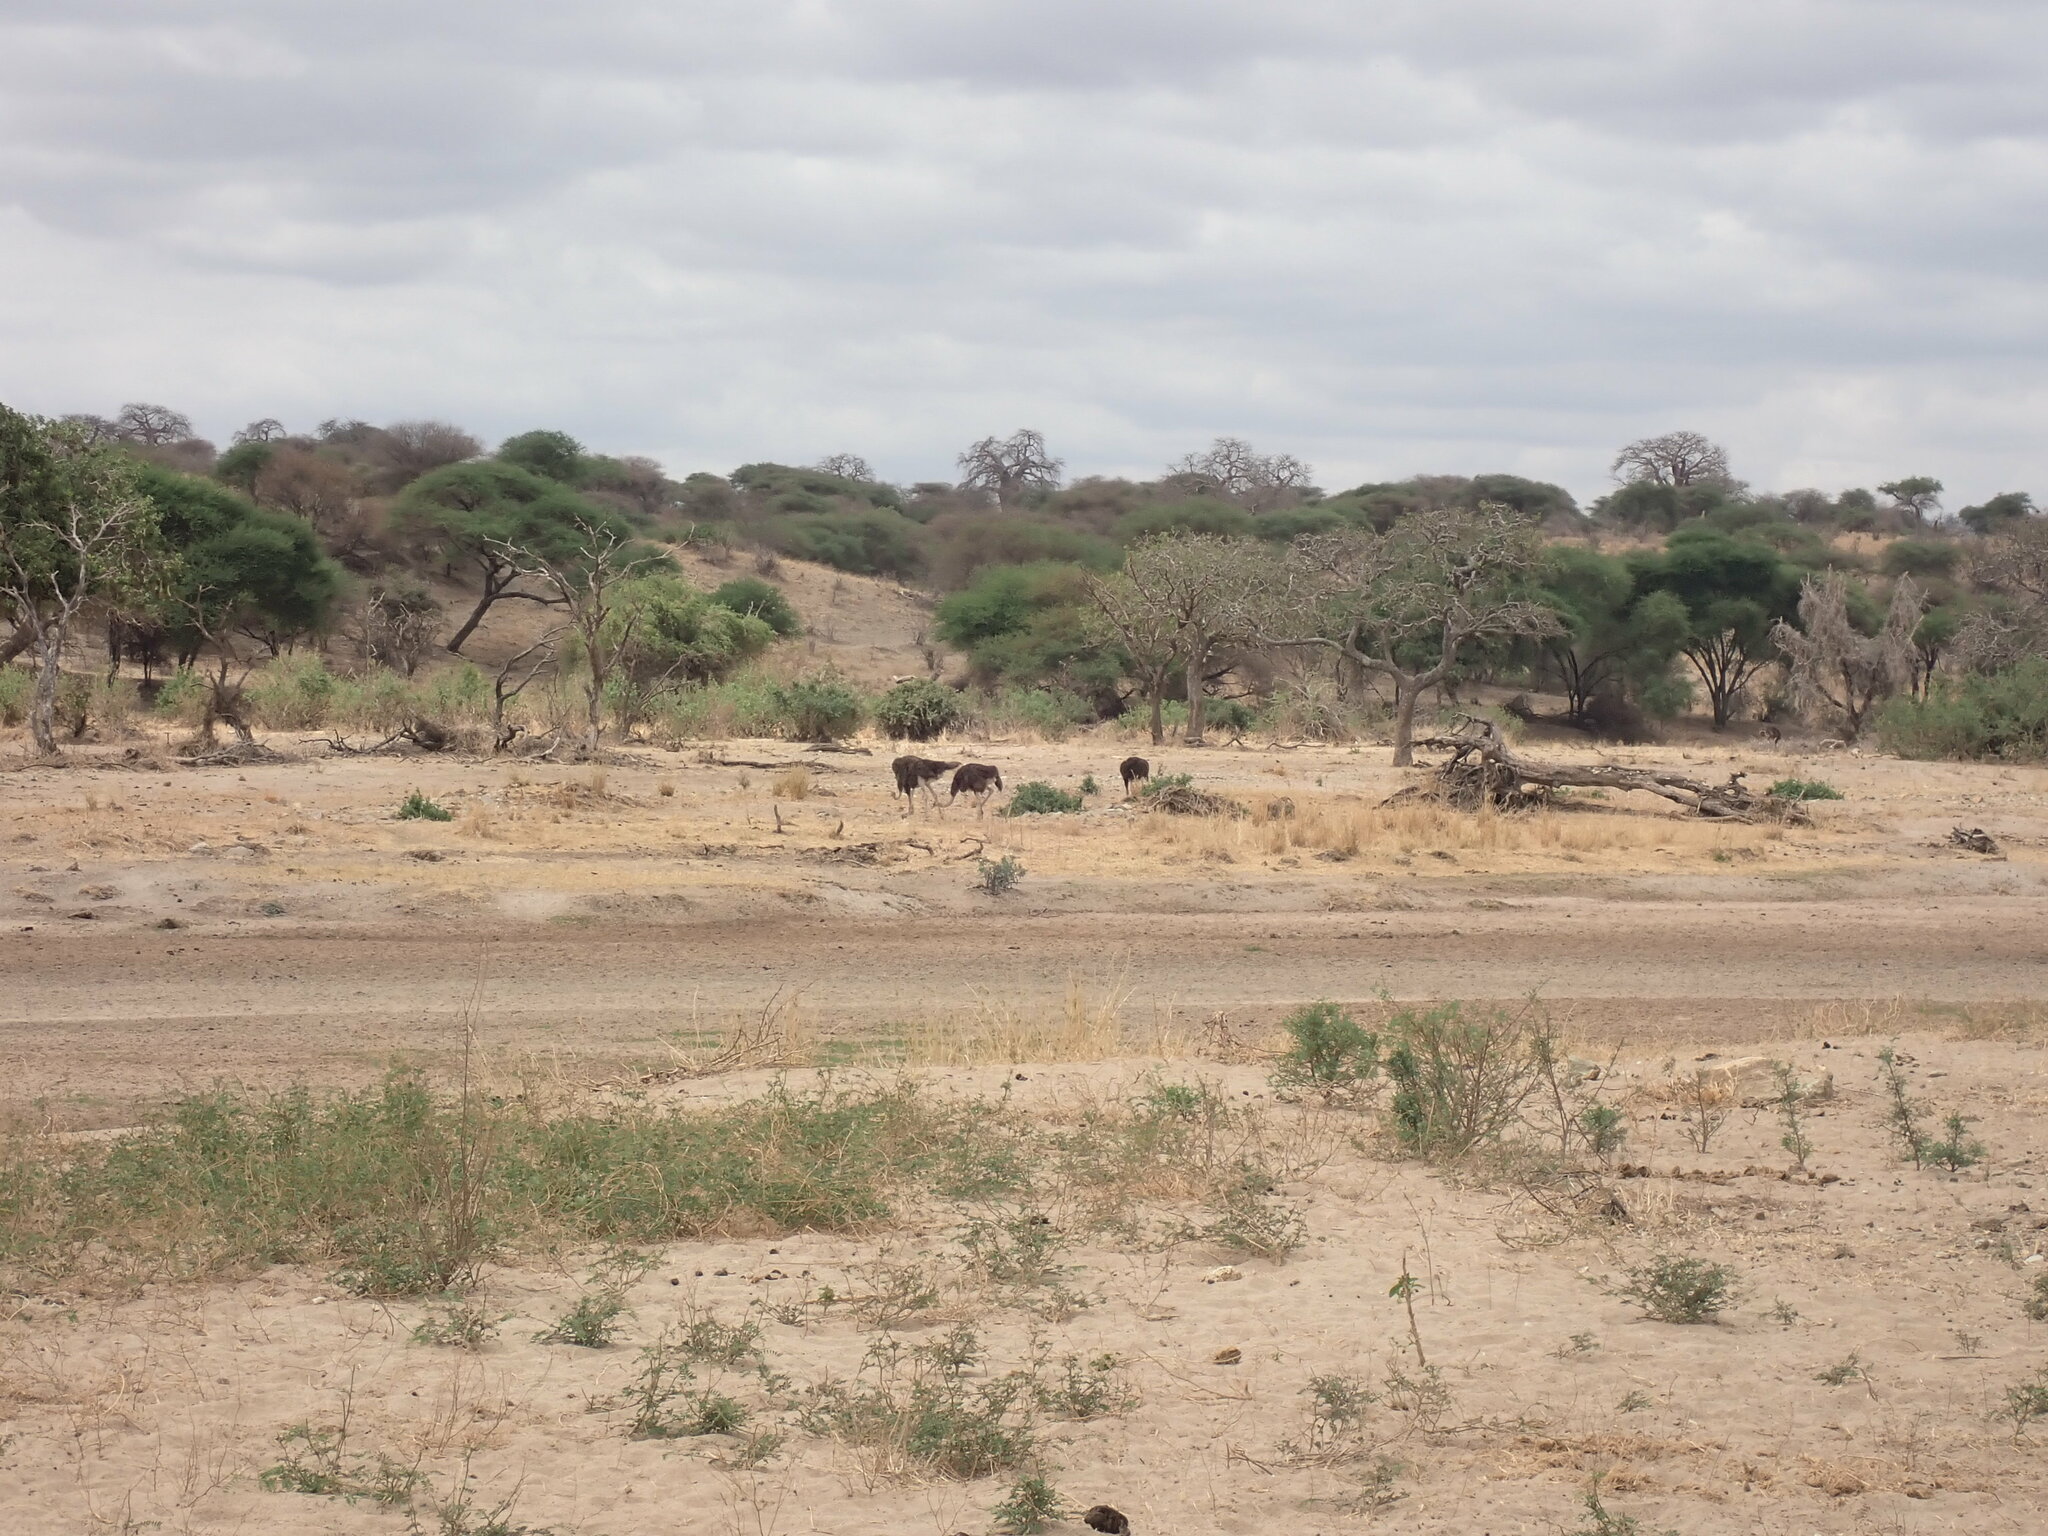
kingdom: Animalia
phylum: Chordata
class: Aves
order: Struthioniformes
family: Struthionidae
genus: Struthio
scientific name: Struthio camelus
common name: Common ostrich
